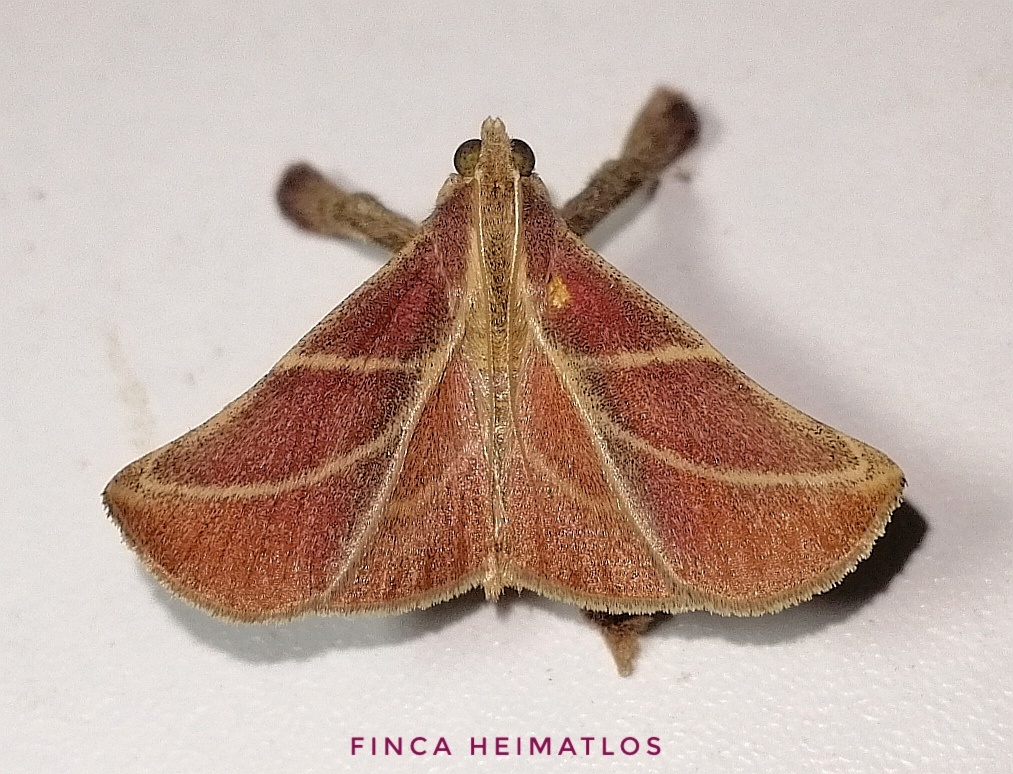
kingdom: Animalia
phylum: Arthropoda
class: Insecta
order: Lepidoptera
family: Pyralidae
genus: Pachypodistes
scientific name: Pachypodistes goeldii
